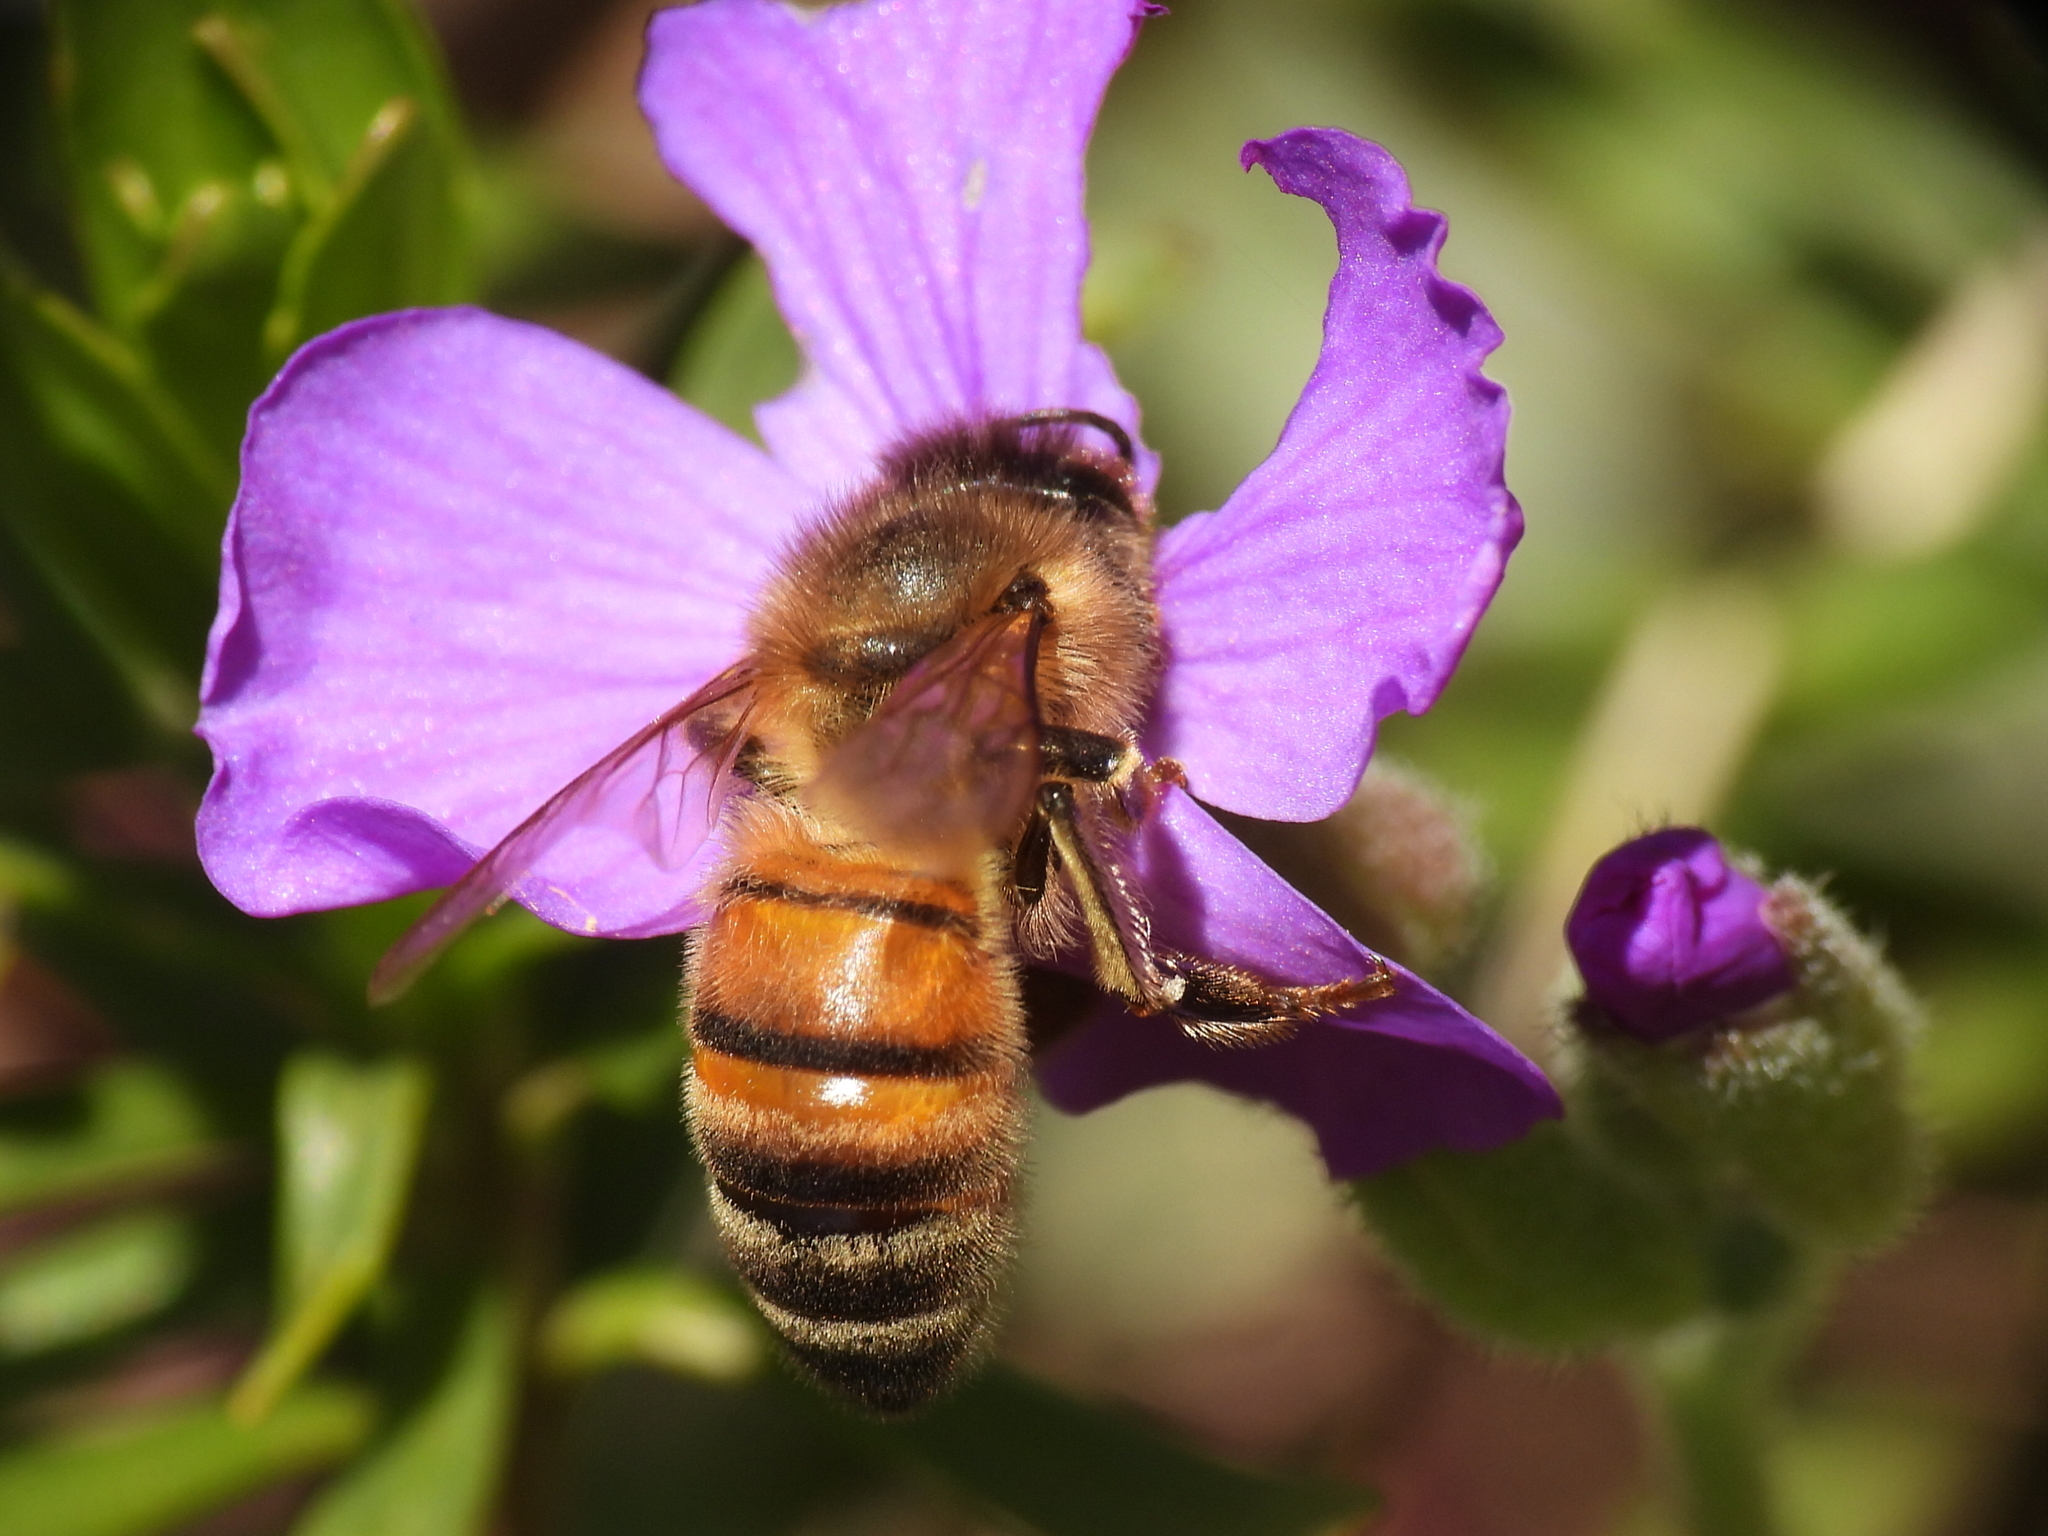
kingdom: Animalia
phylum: Arthropoda
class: Insecta
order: Hymenoptera
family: Apidae
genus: Apis
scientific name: Apis mellifera
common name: Honey bee
